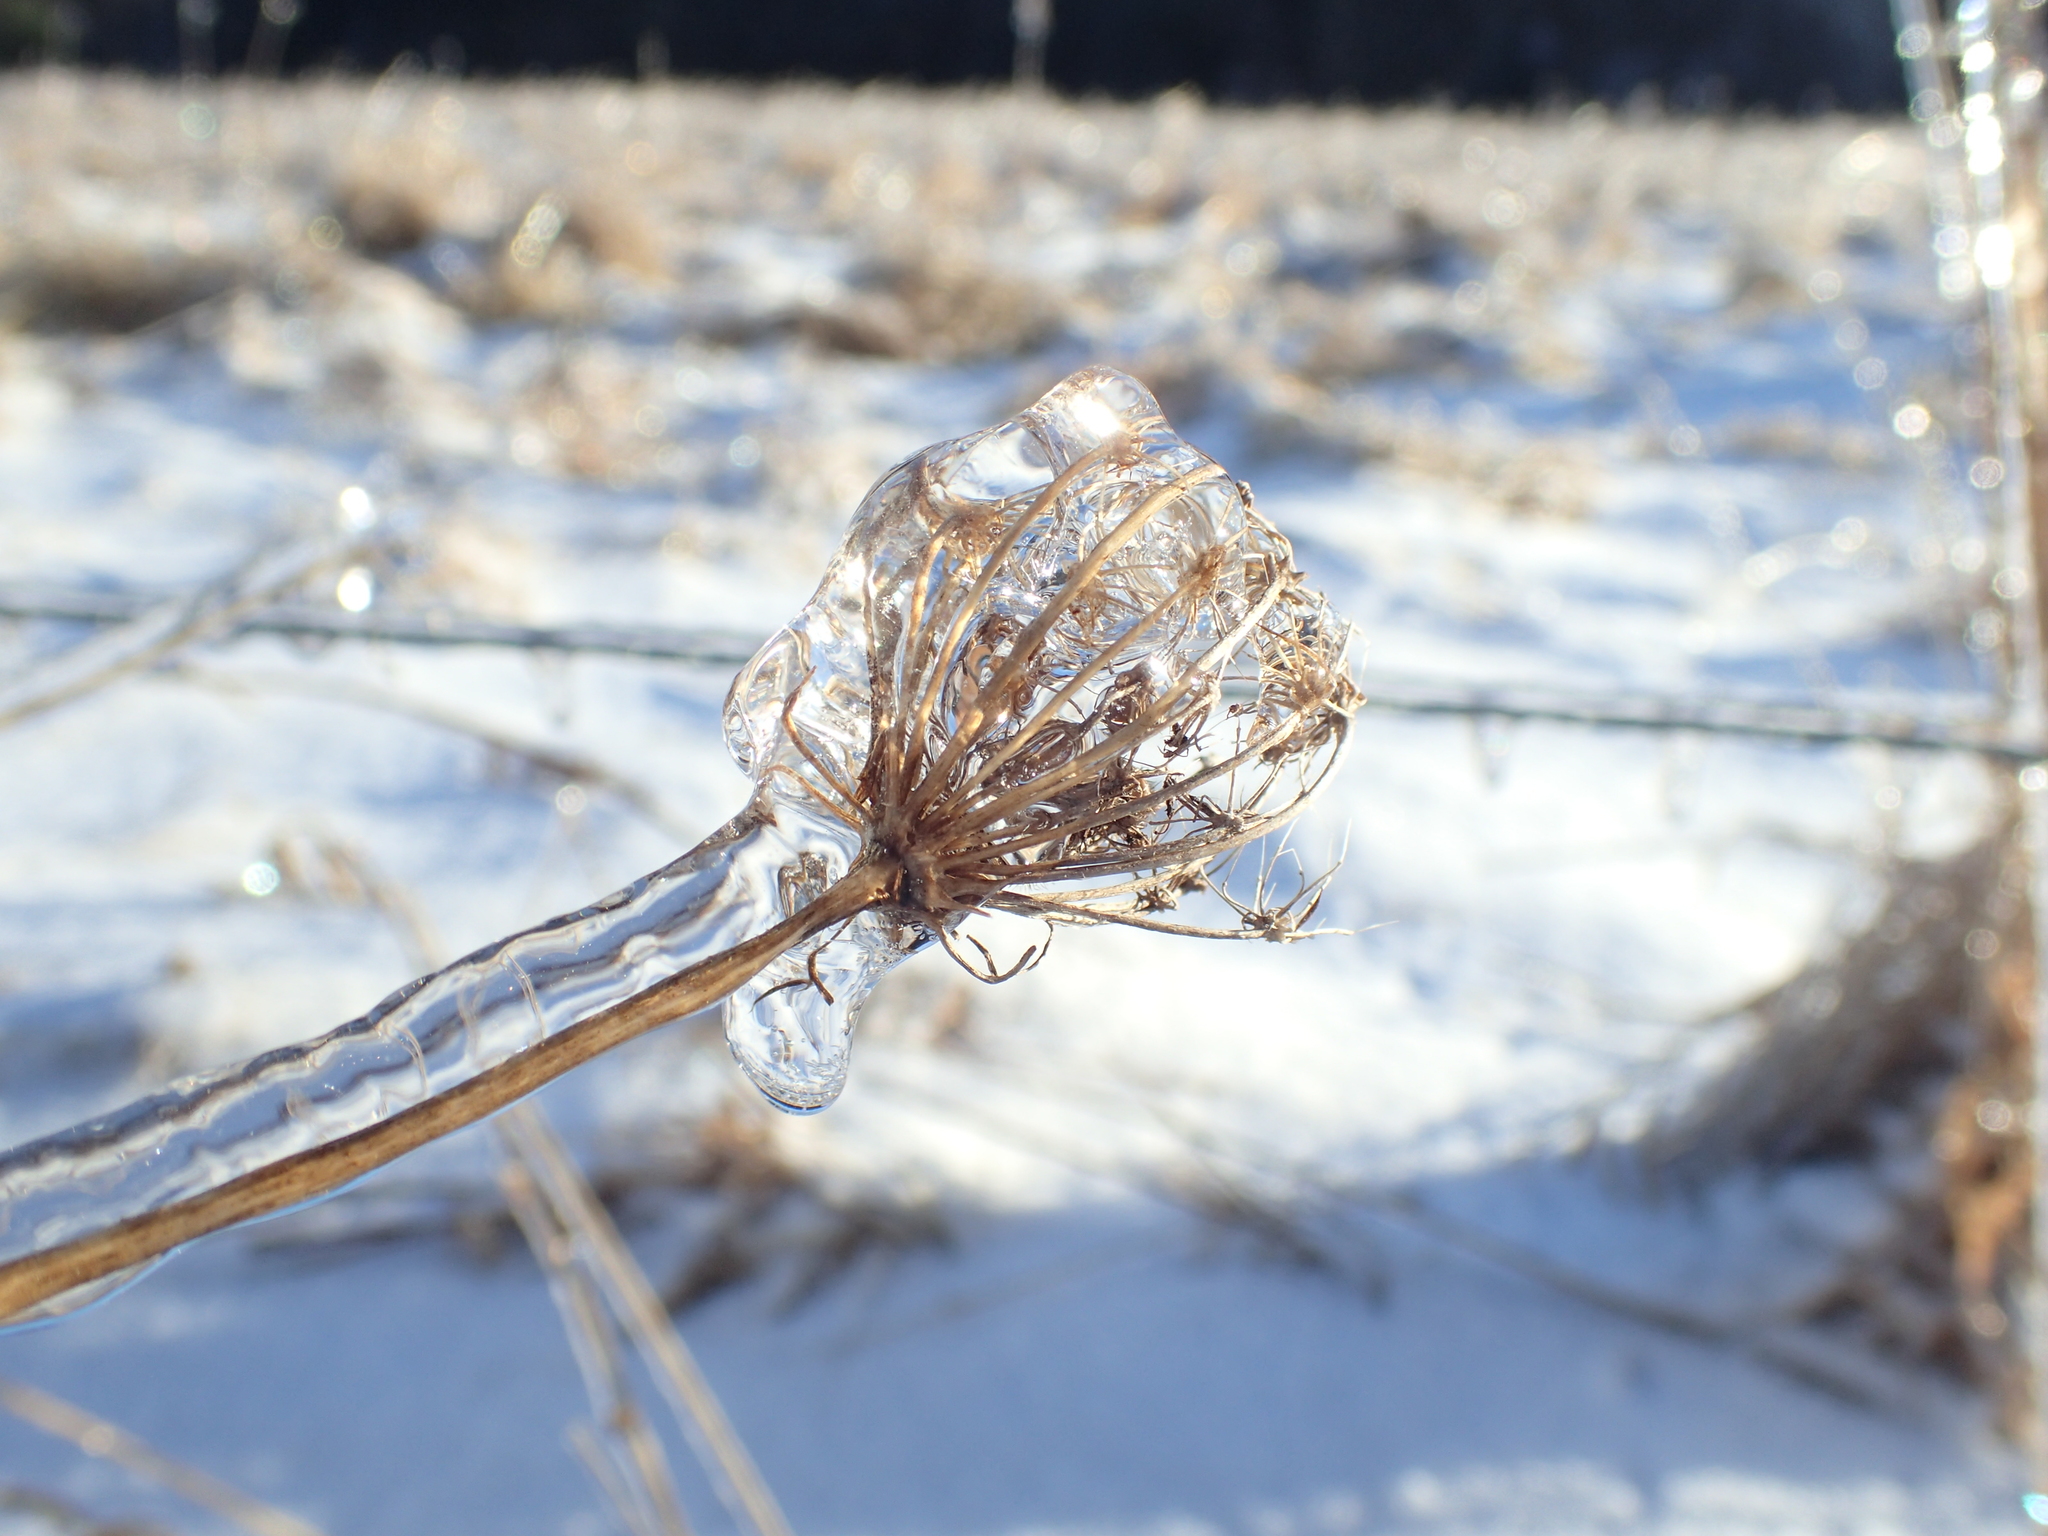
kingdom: Plantae
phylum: Tracheophyta
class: Magnoliopsida
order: Apiales
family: Apiaceae
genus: Daucus
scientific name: Daucus carota
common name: Wild carrot
